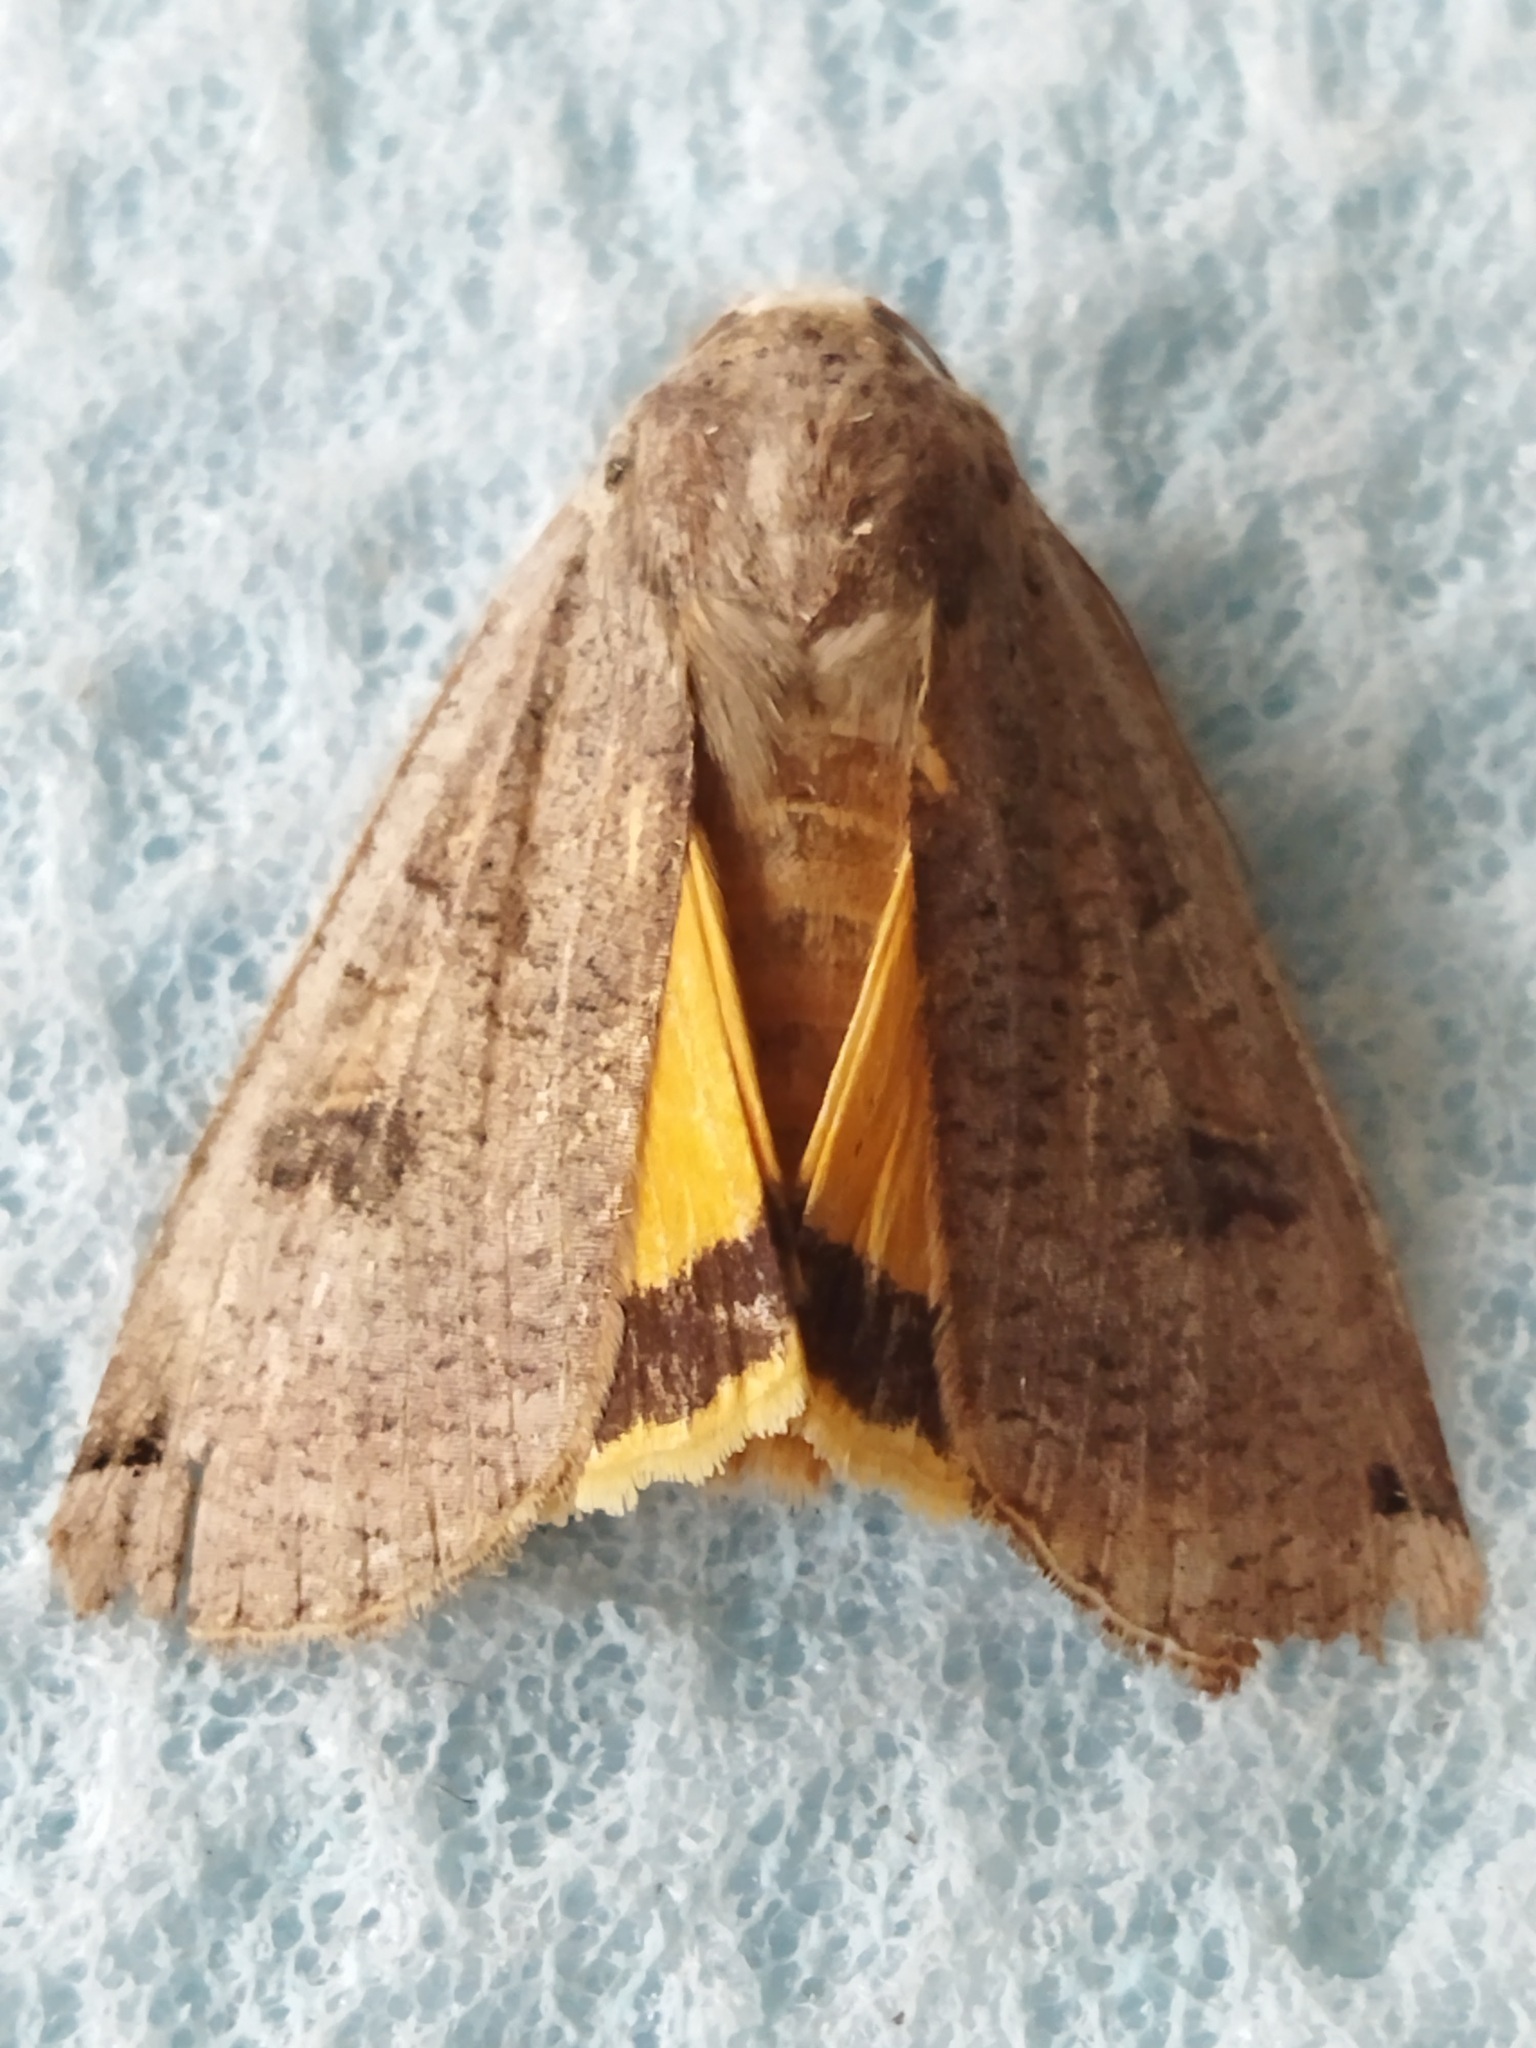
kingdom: Animalia
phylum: Arthropoda
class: Insecta
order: Lepidoptera
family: Noctuidae
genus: Noctua
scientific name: Noctua pronuba
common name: Large yellow underwing
